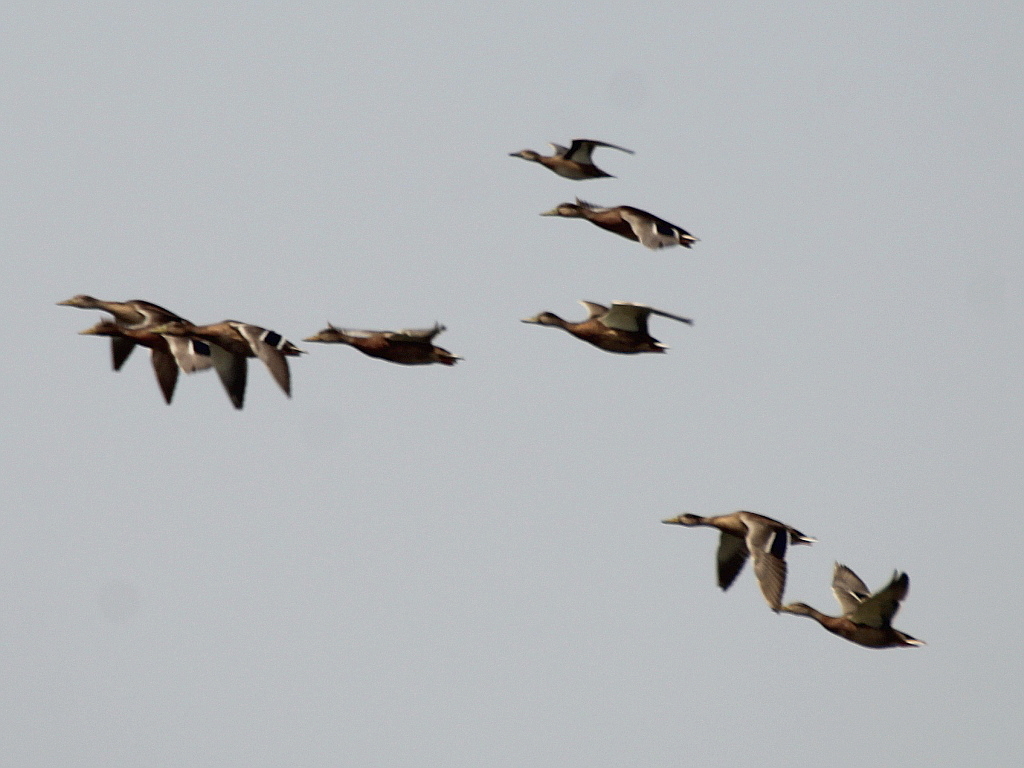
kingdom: Animalia
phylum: Chordata
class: Aves
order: Anseriformes
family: Anatidae
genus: Anas
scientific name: Anas platyrhynchos
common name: Mallard
